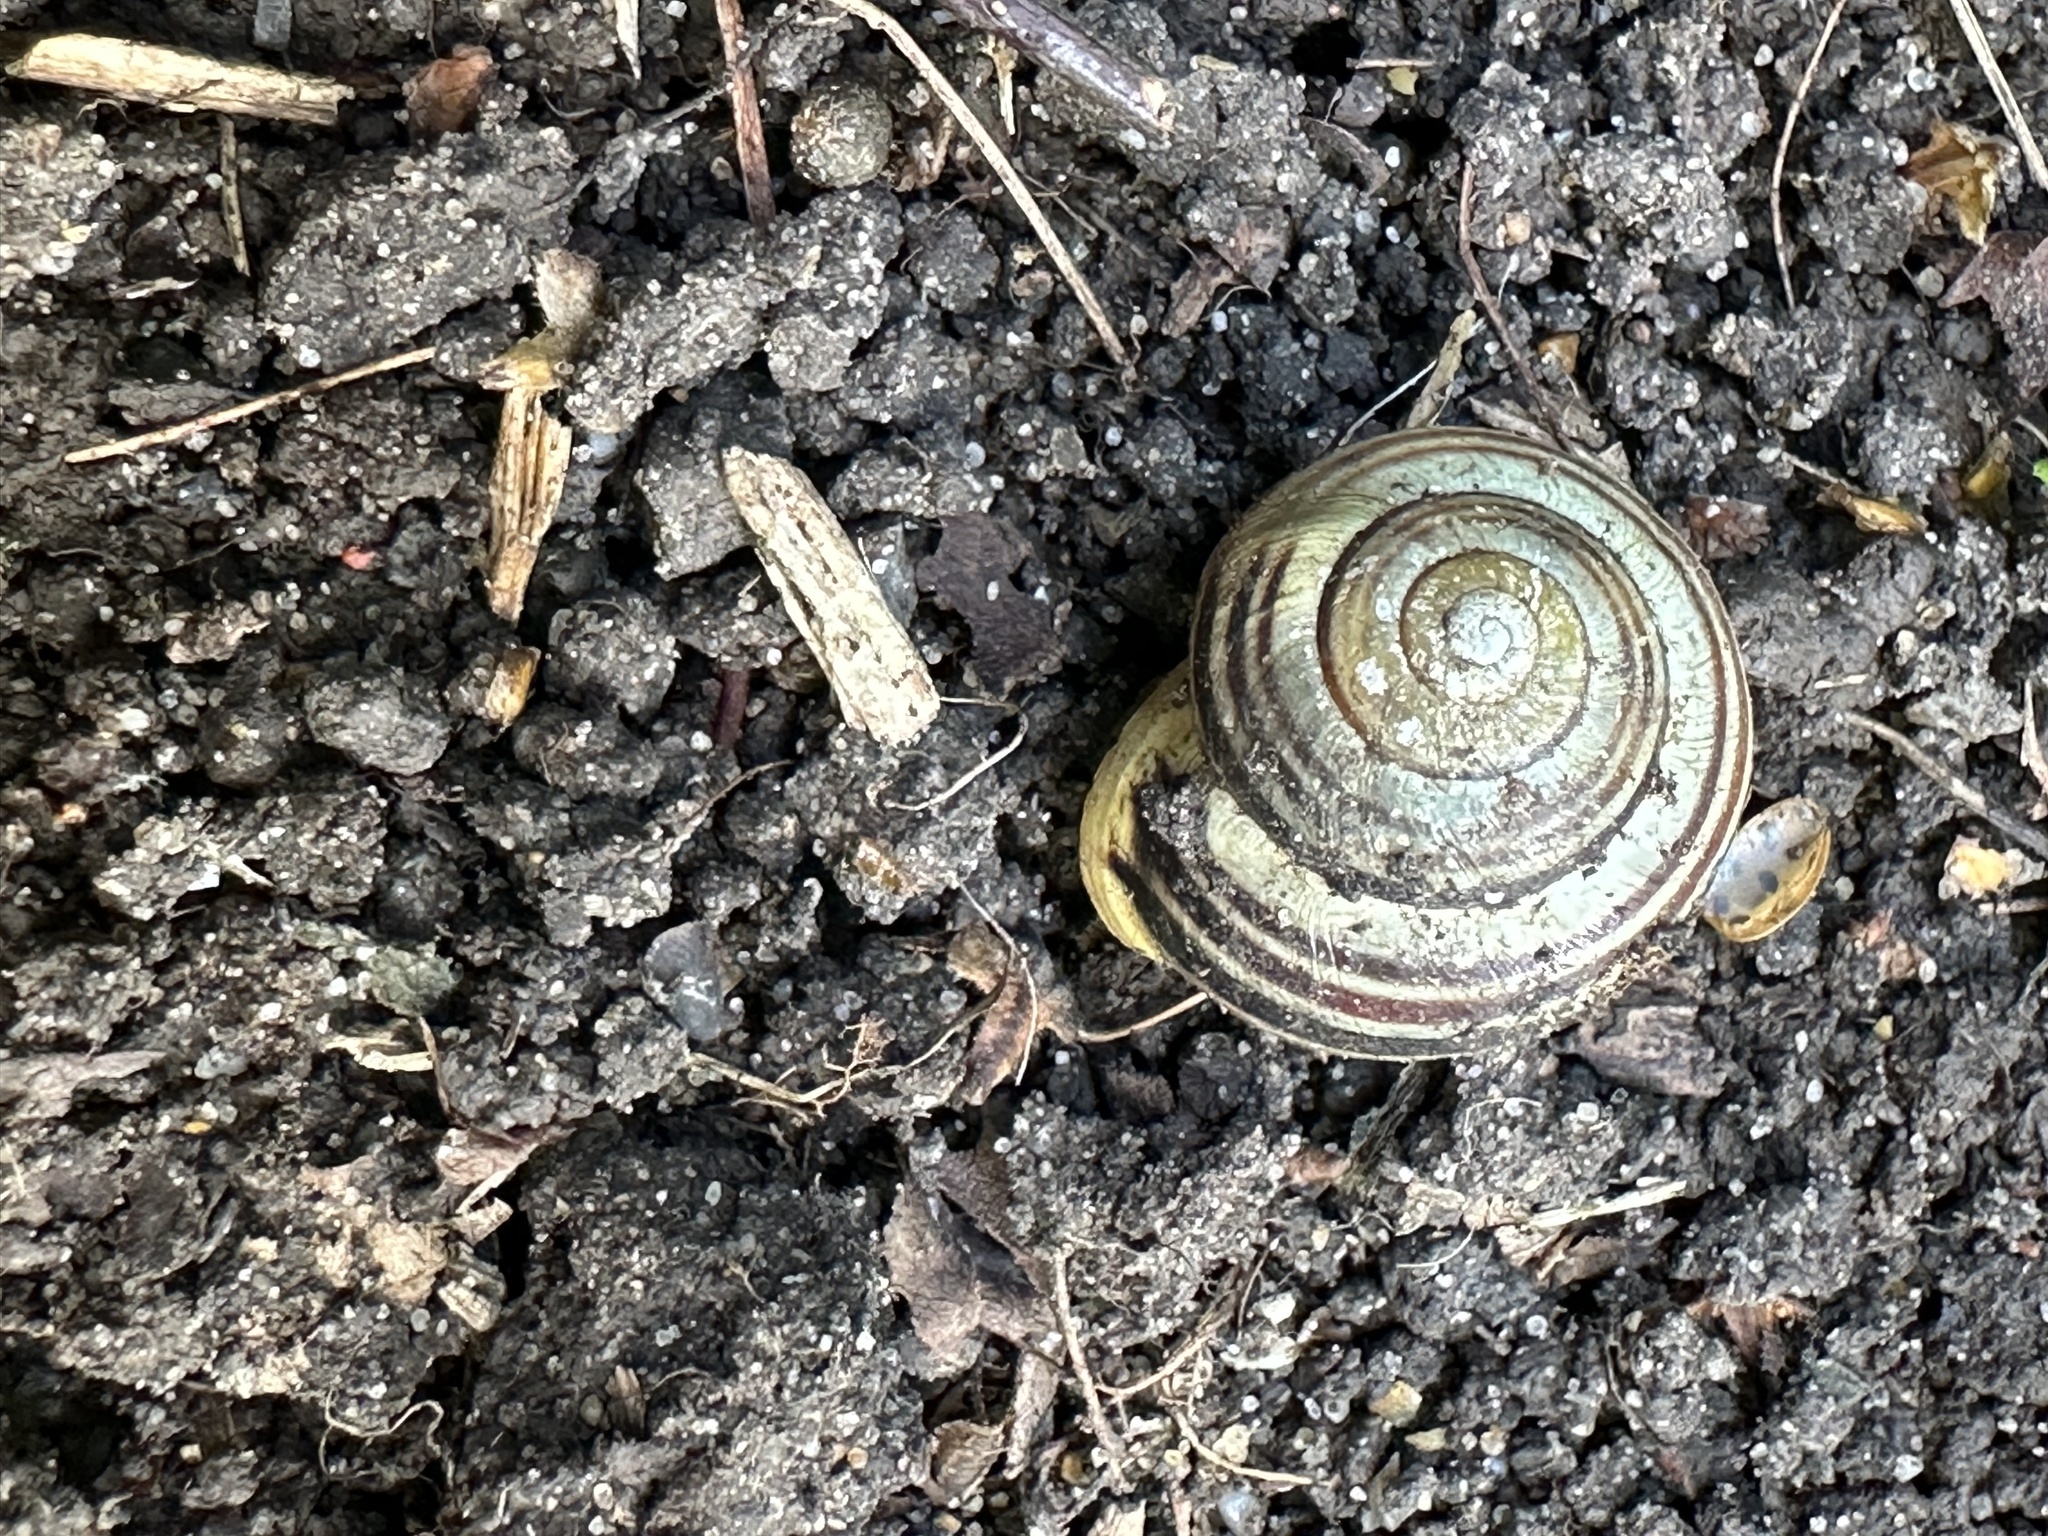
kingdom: Animalia
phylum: Mollusca
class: Gastropoda
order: Stylommatophora
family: Helicidae
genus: Cepaea
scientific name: Cepaea hortensis
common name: White-lip gardensnail
